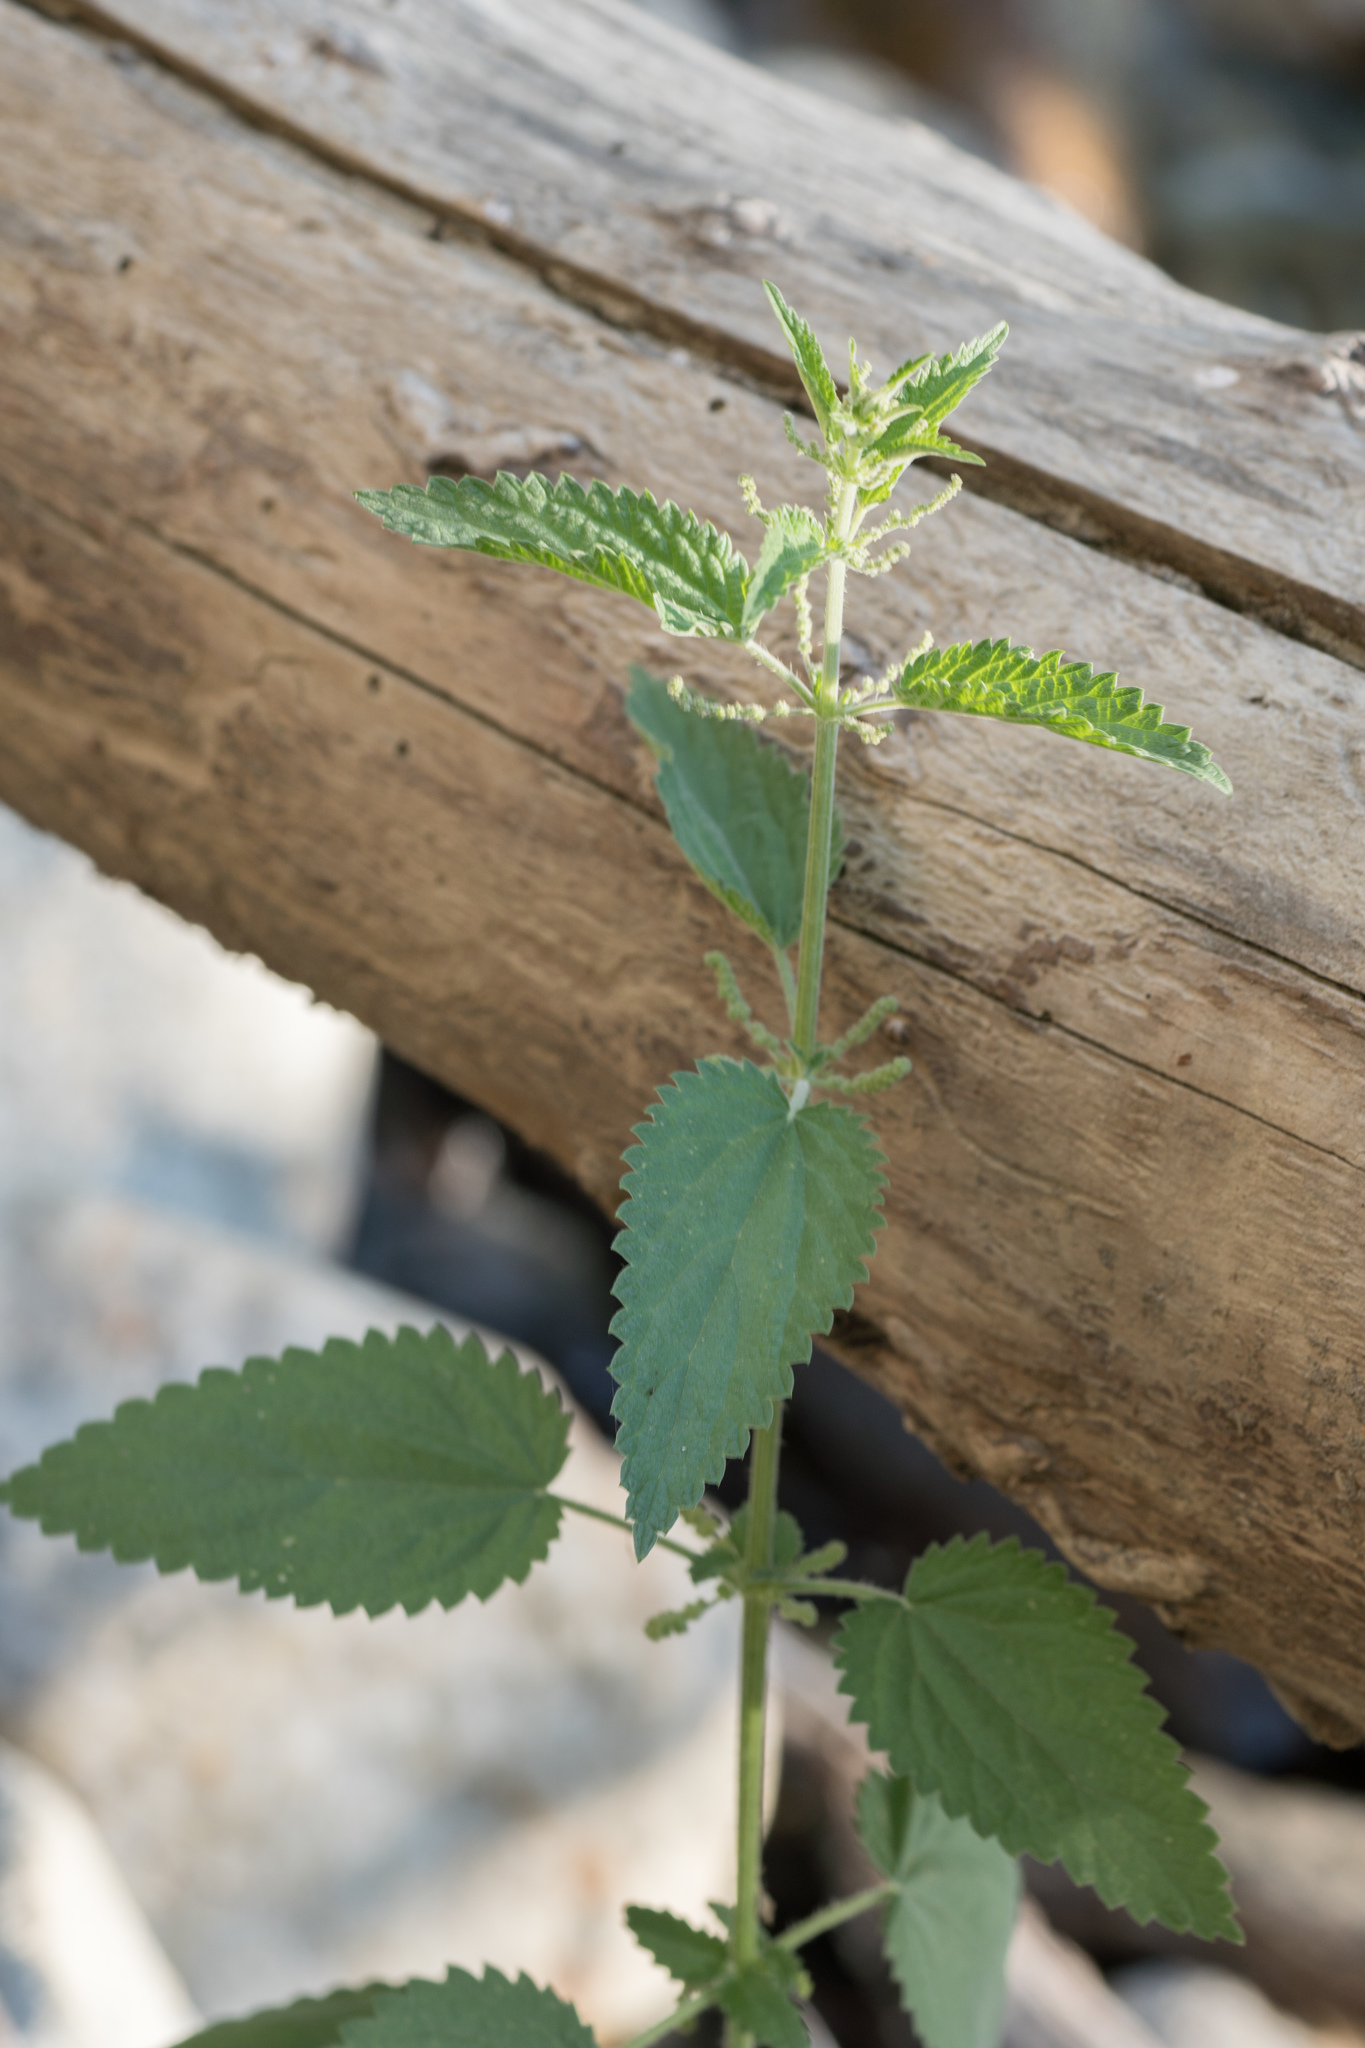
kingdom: Plantae
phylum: Tracheophyta
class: Magnoliopsida
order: Rosales
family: Urticaceae
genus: Urtica
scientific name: Urtica gracilis
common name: Slender stinging nettle
